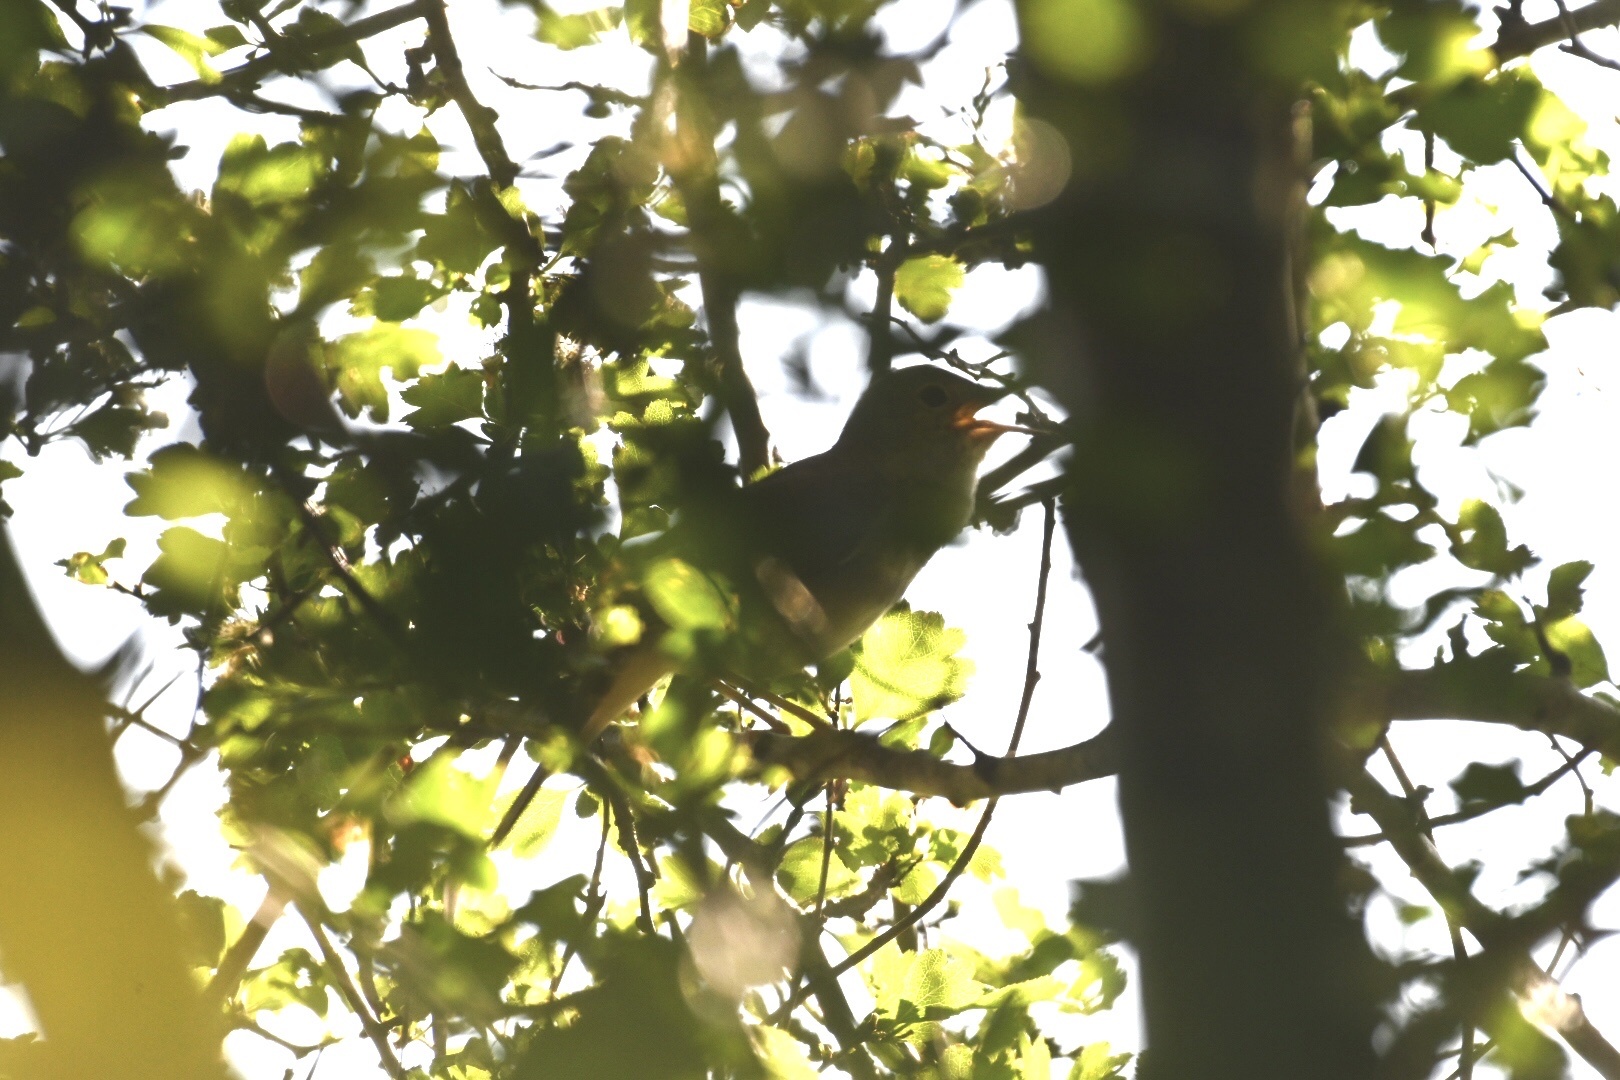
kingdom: Animalia
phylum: Chordata
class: Aves
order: Passeriformes
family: Muscicapidae
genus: Luscinia
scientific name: Luscinia megarhynchos
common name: Common nightingale
